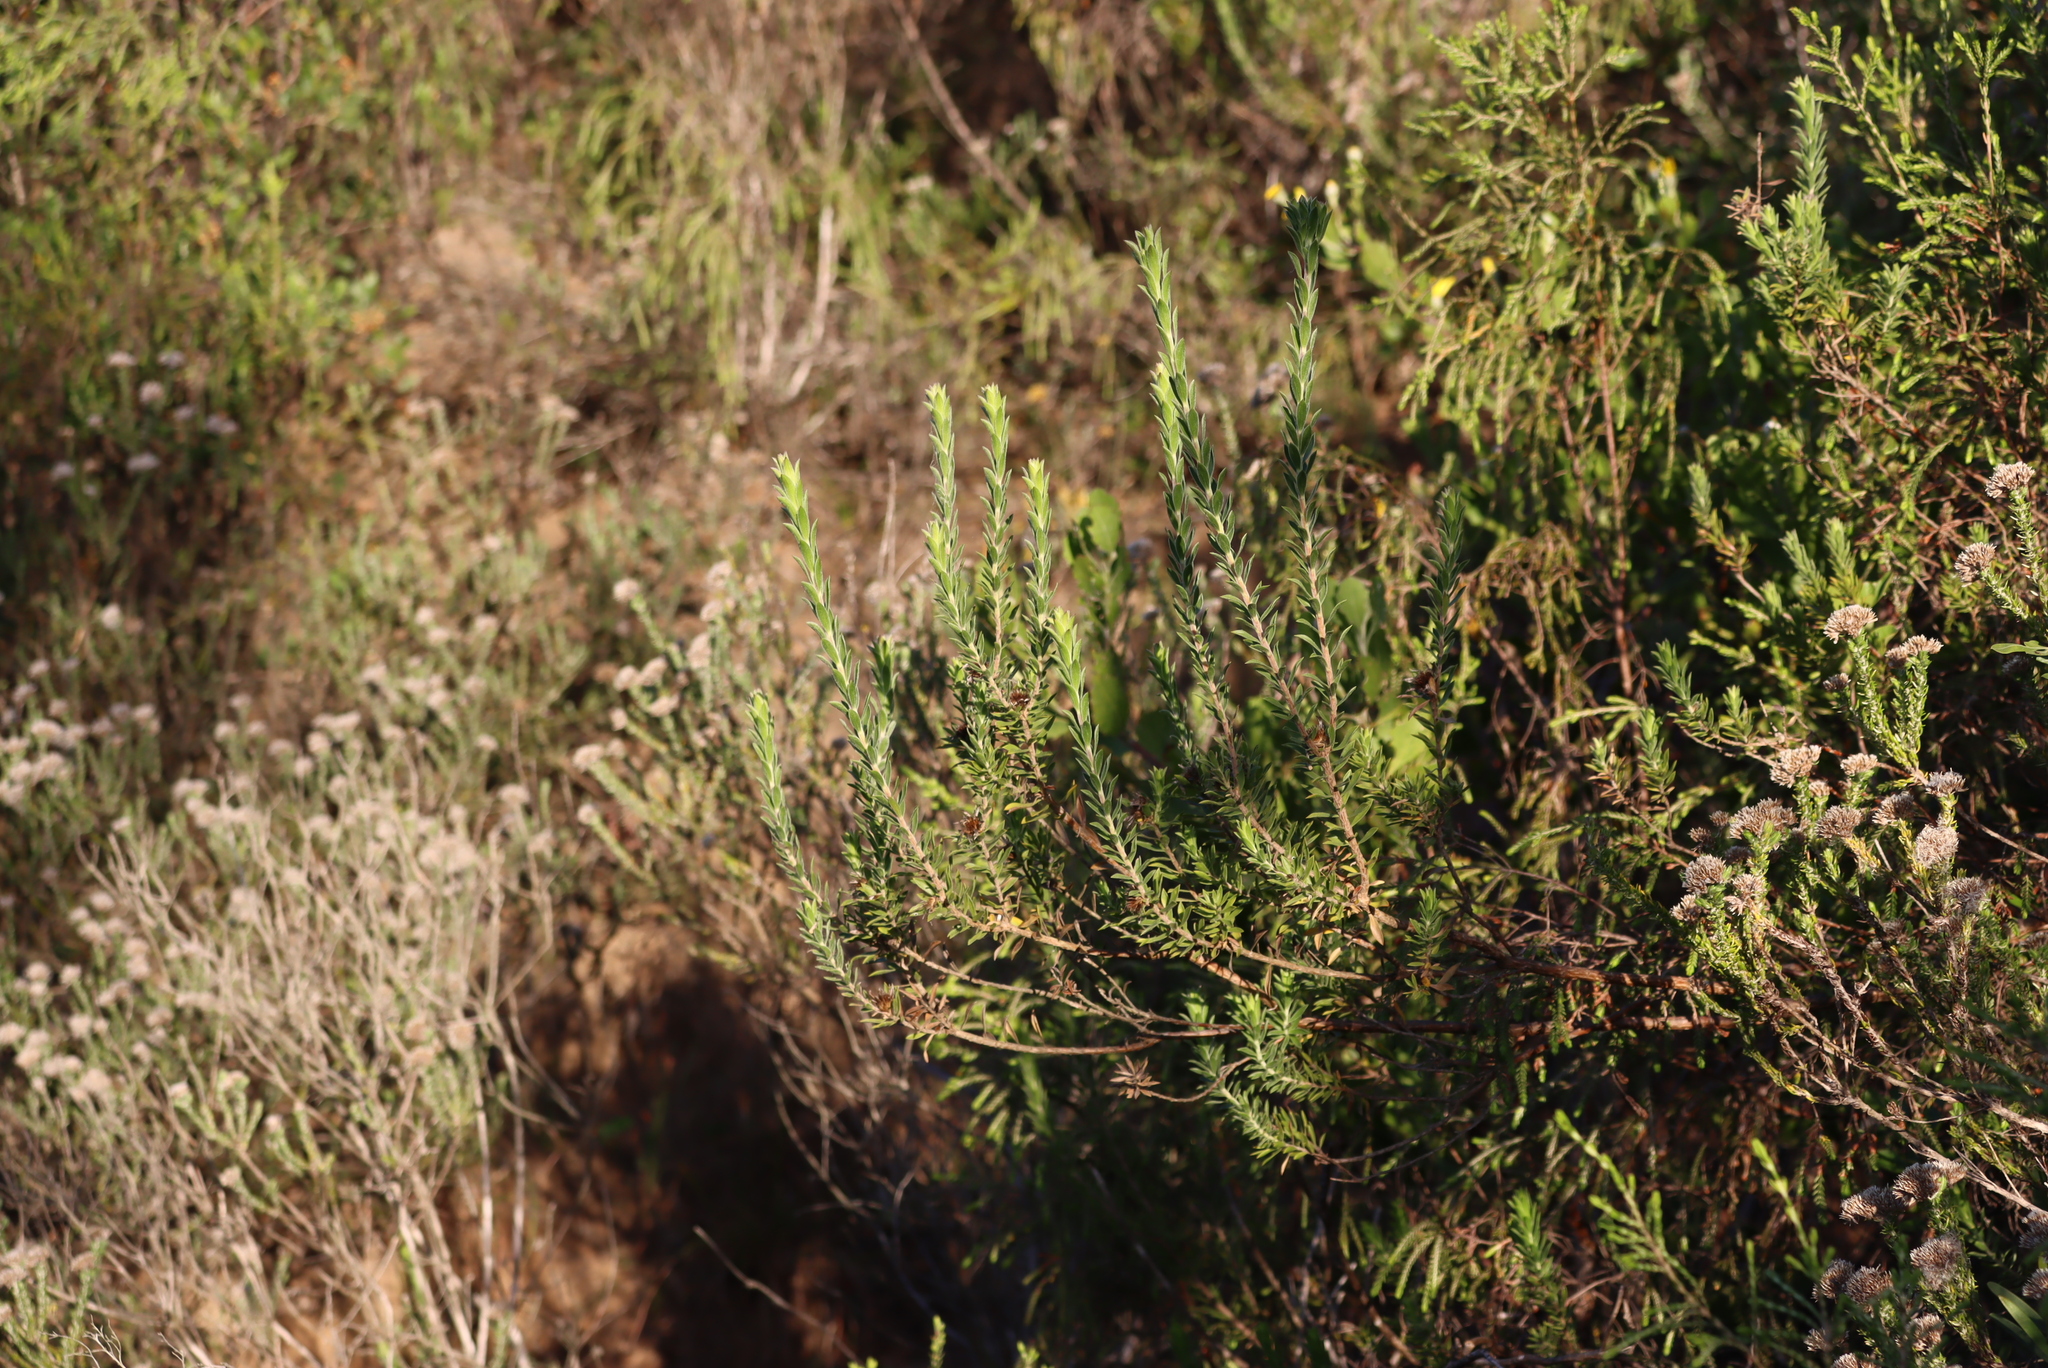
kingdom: Plantae
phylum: Tracheophyta
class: Magnoliopsida
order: Asterales
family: Asteraceae
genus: Oedera
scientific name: Oedera calycina
